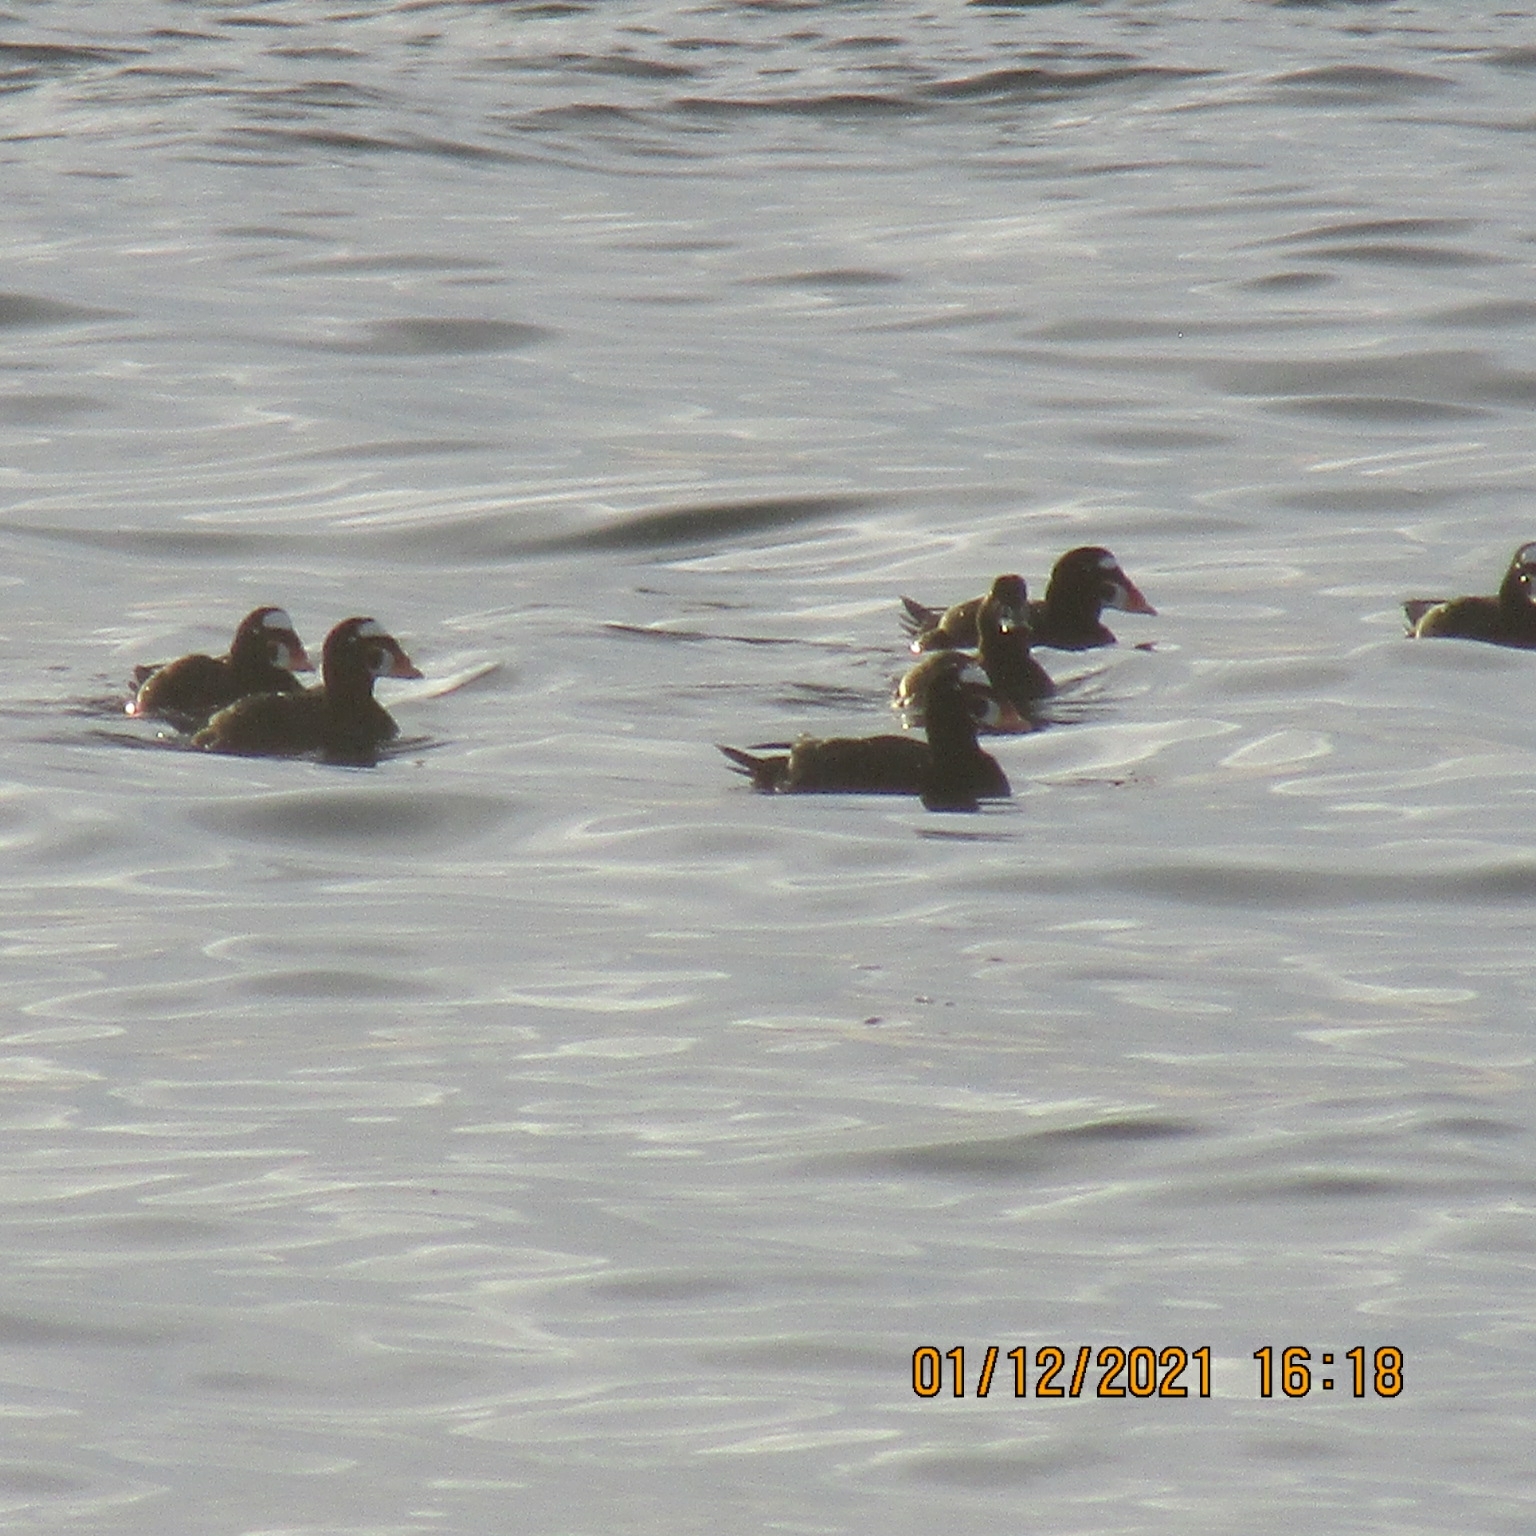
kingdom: Animalia
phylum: Chordata
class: Aves
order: Anseriformes
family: Anatidae
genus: Melanitta
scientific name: Melanitta perspicillata
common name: Surf scoter
